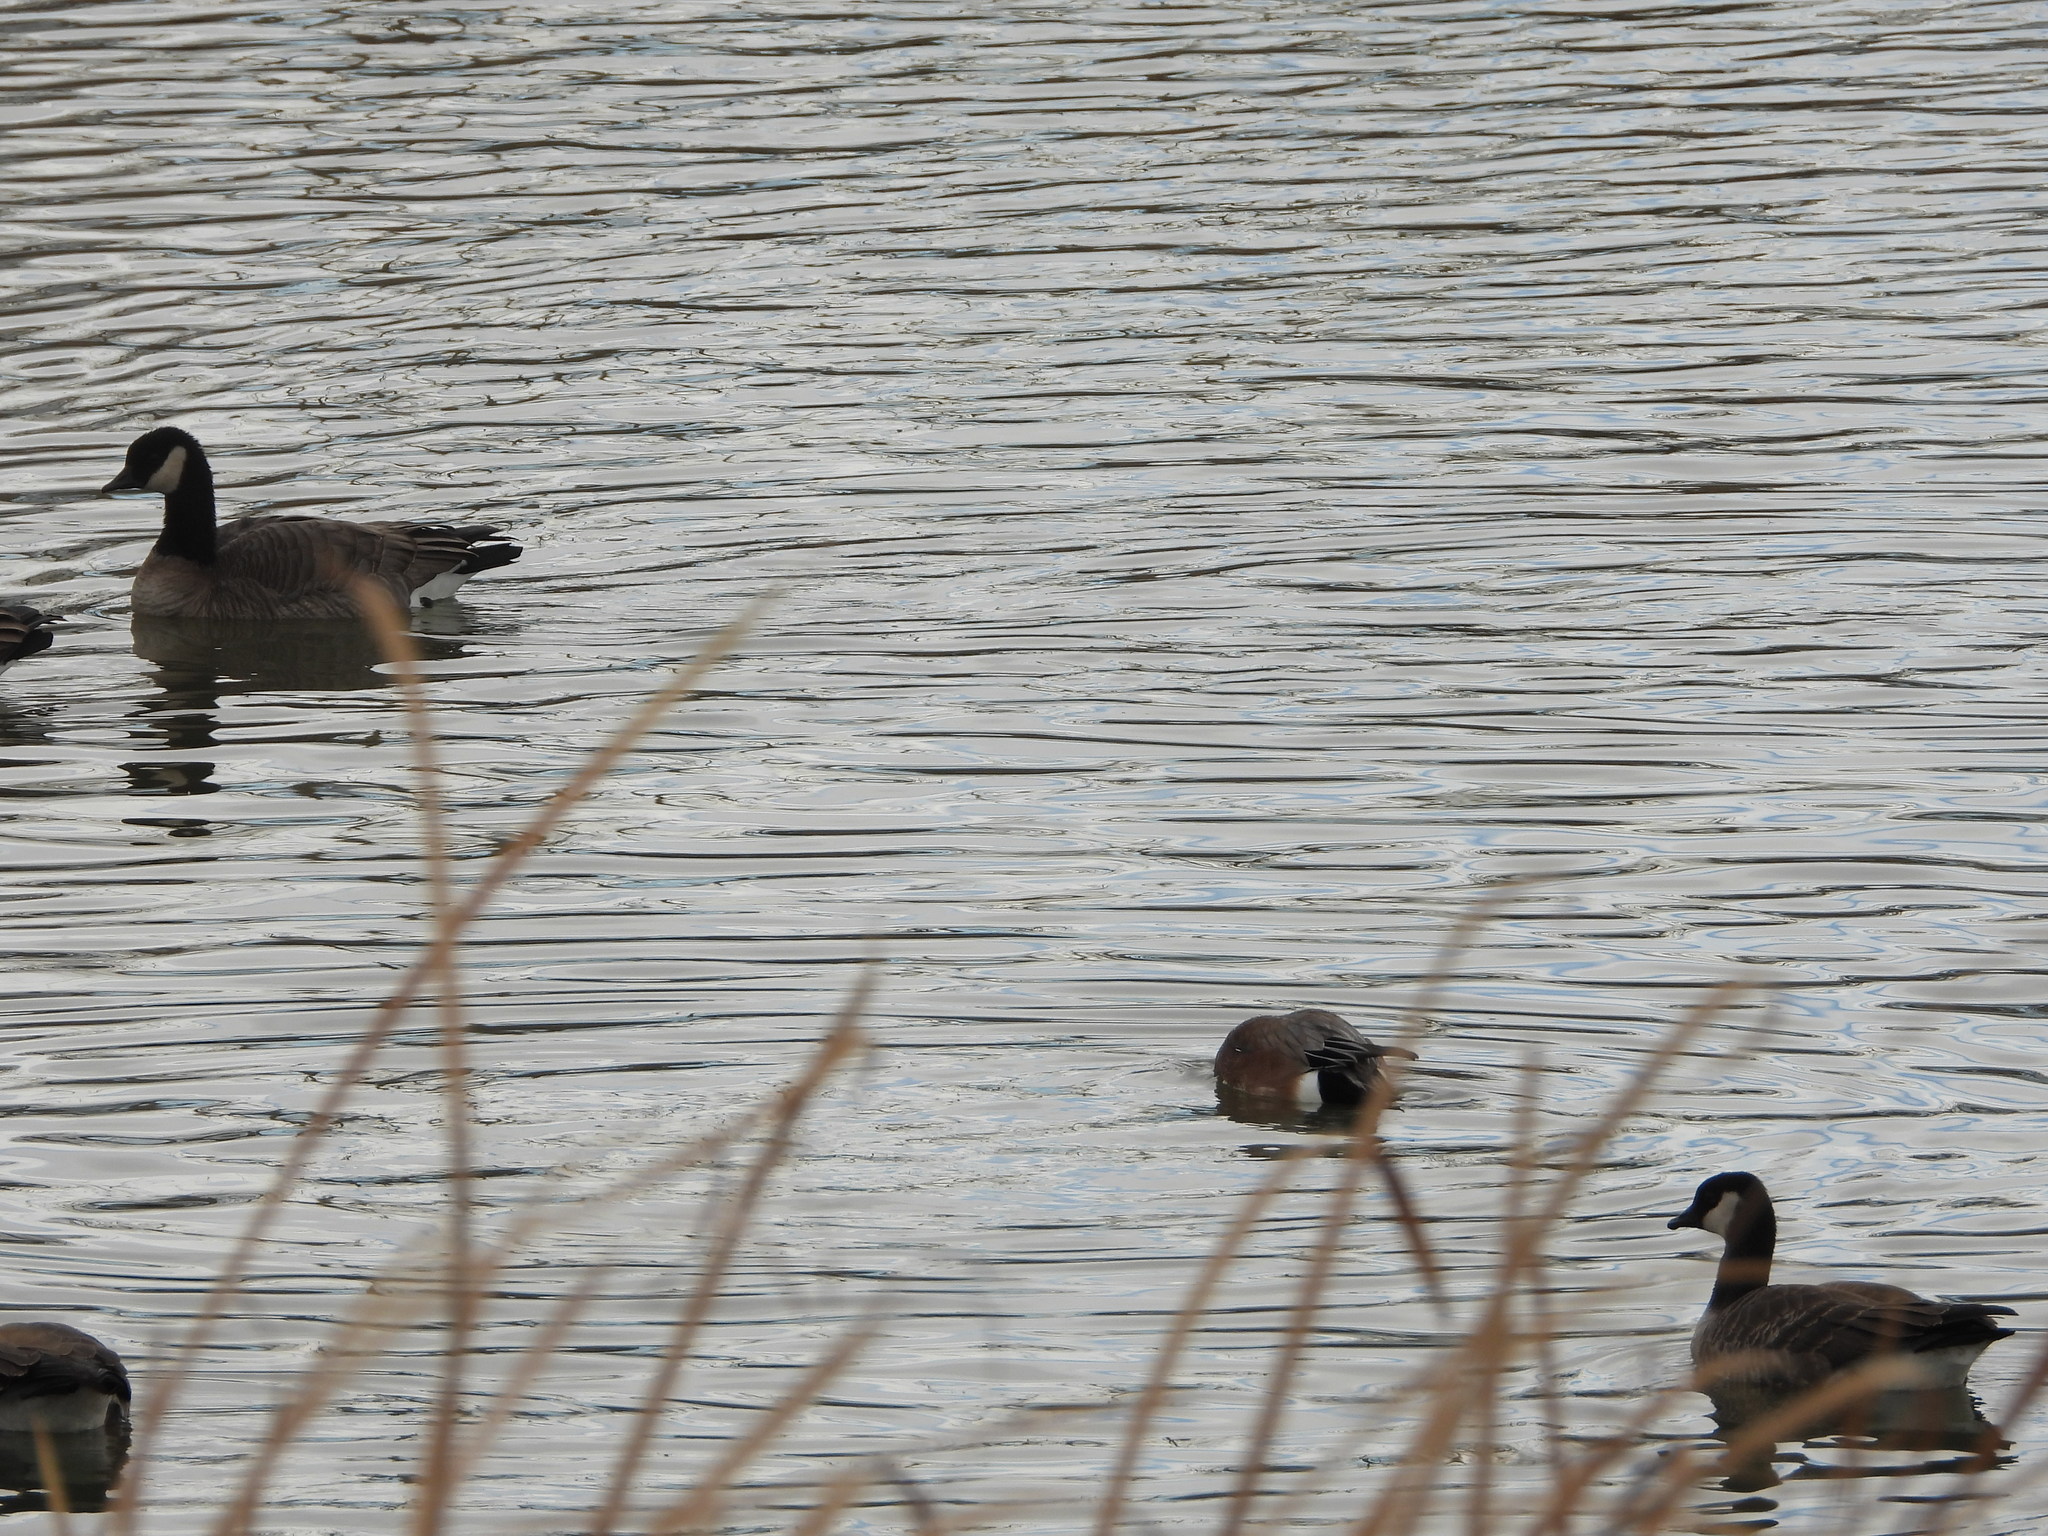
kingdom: Animalia
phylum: Chordata
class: Aves
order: Anseriformes
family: Anatidae
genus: Mareca
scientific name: Mareca americana
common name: American wigeon
